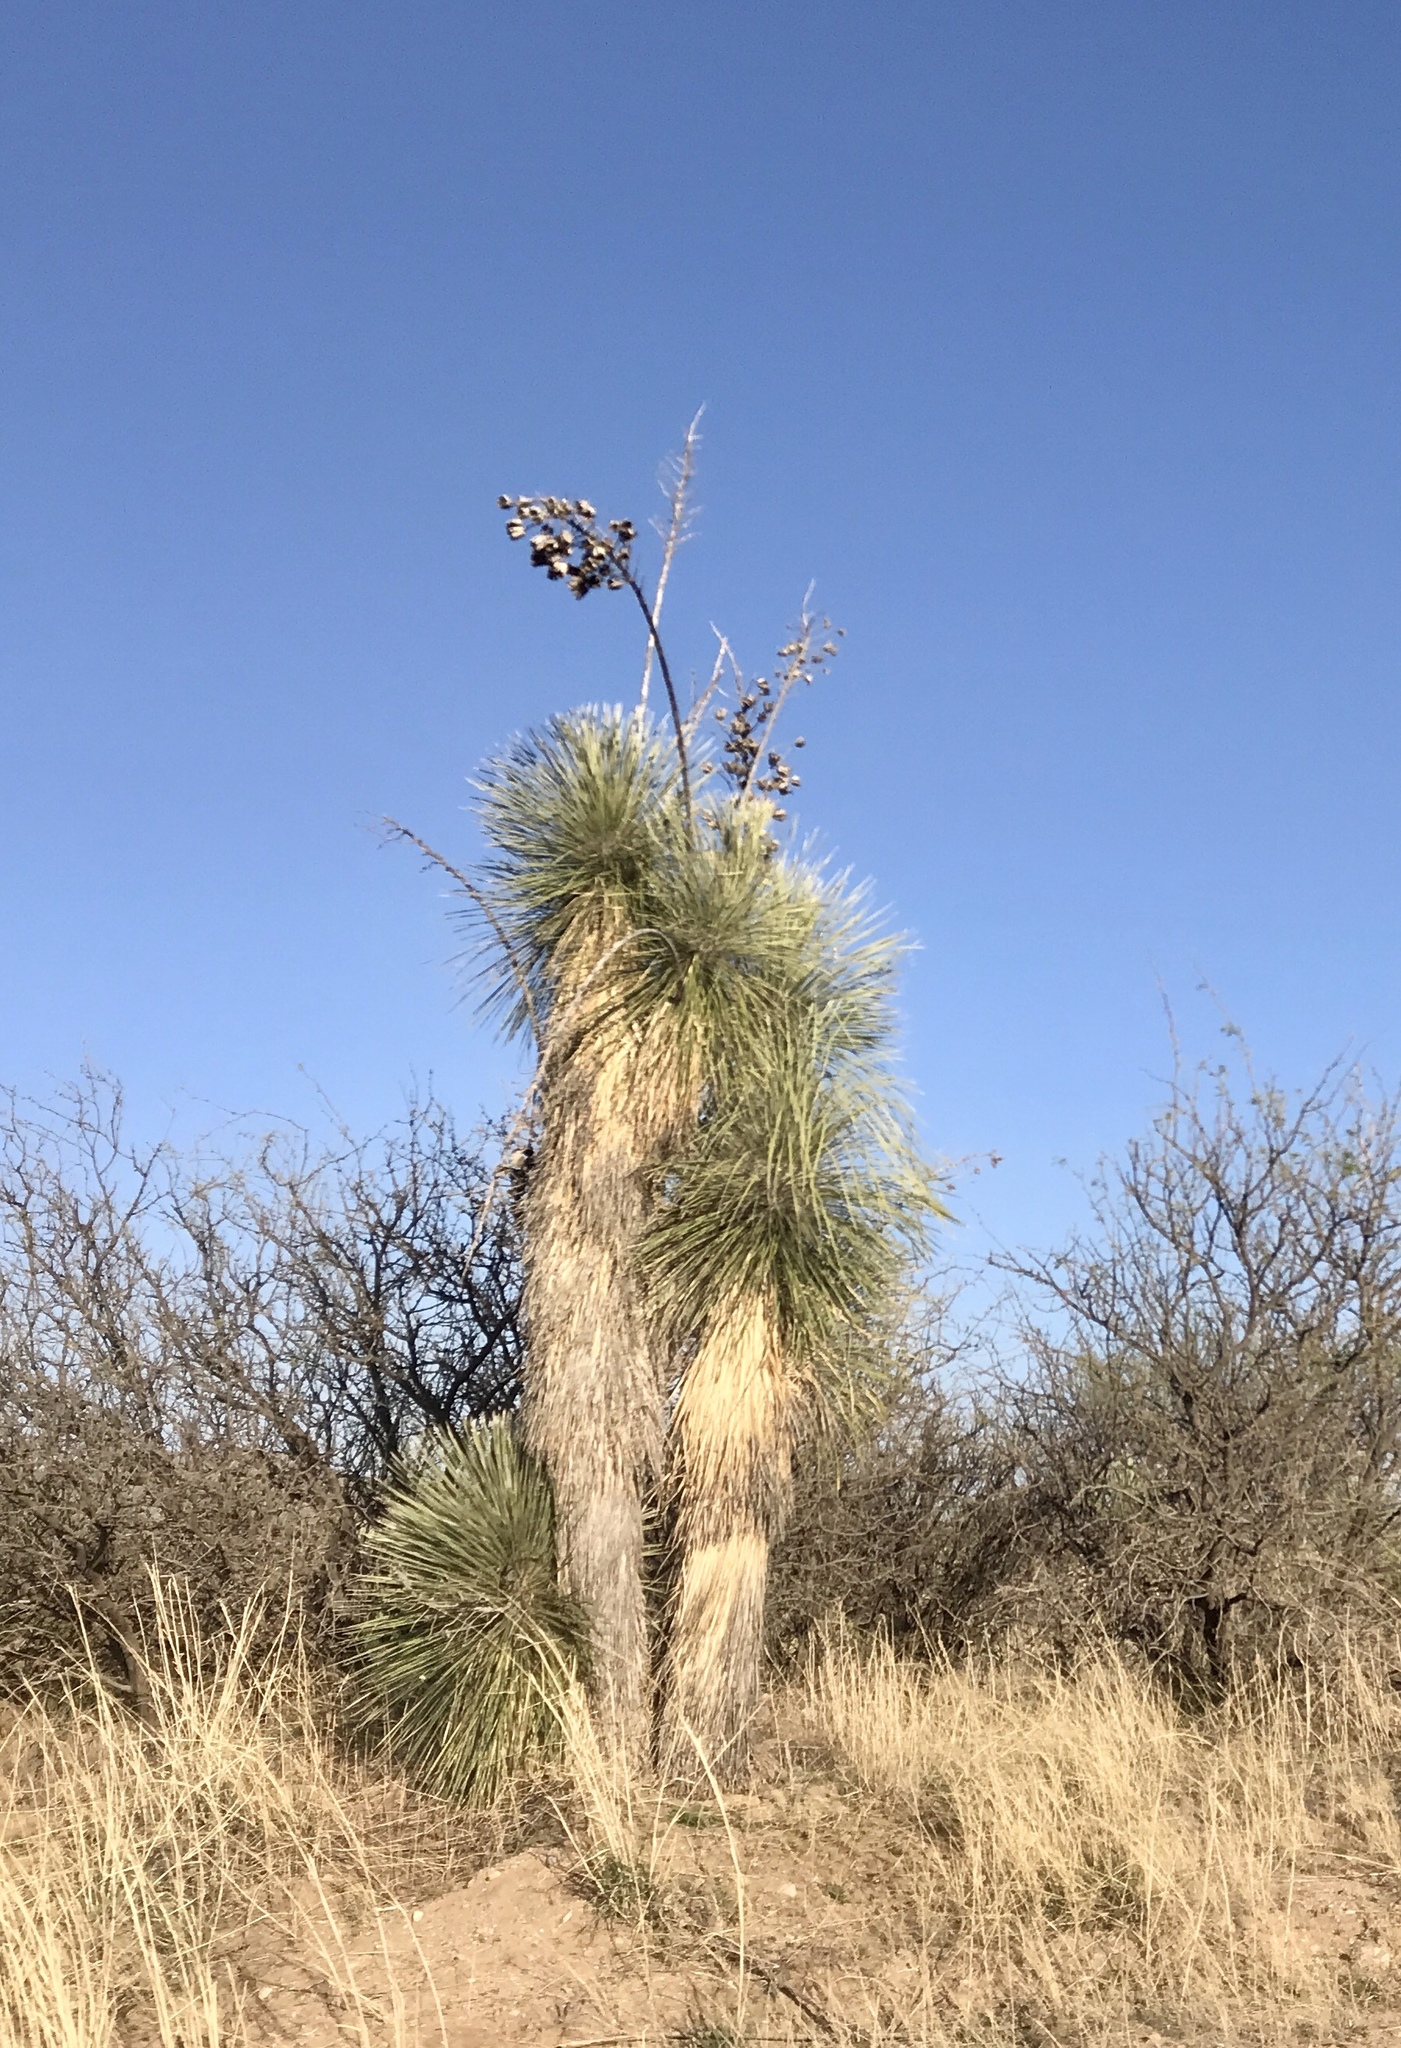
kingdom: Plantae
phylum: Tracheophyta
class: Liliopsida
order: Asparagales
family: Asparagaceae
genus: Yucca
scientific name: Yucca elata
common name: Palmella
